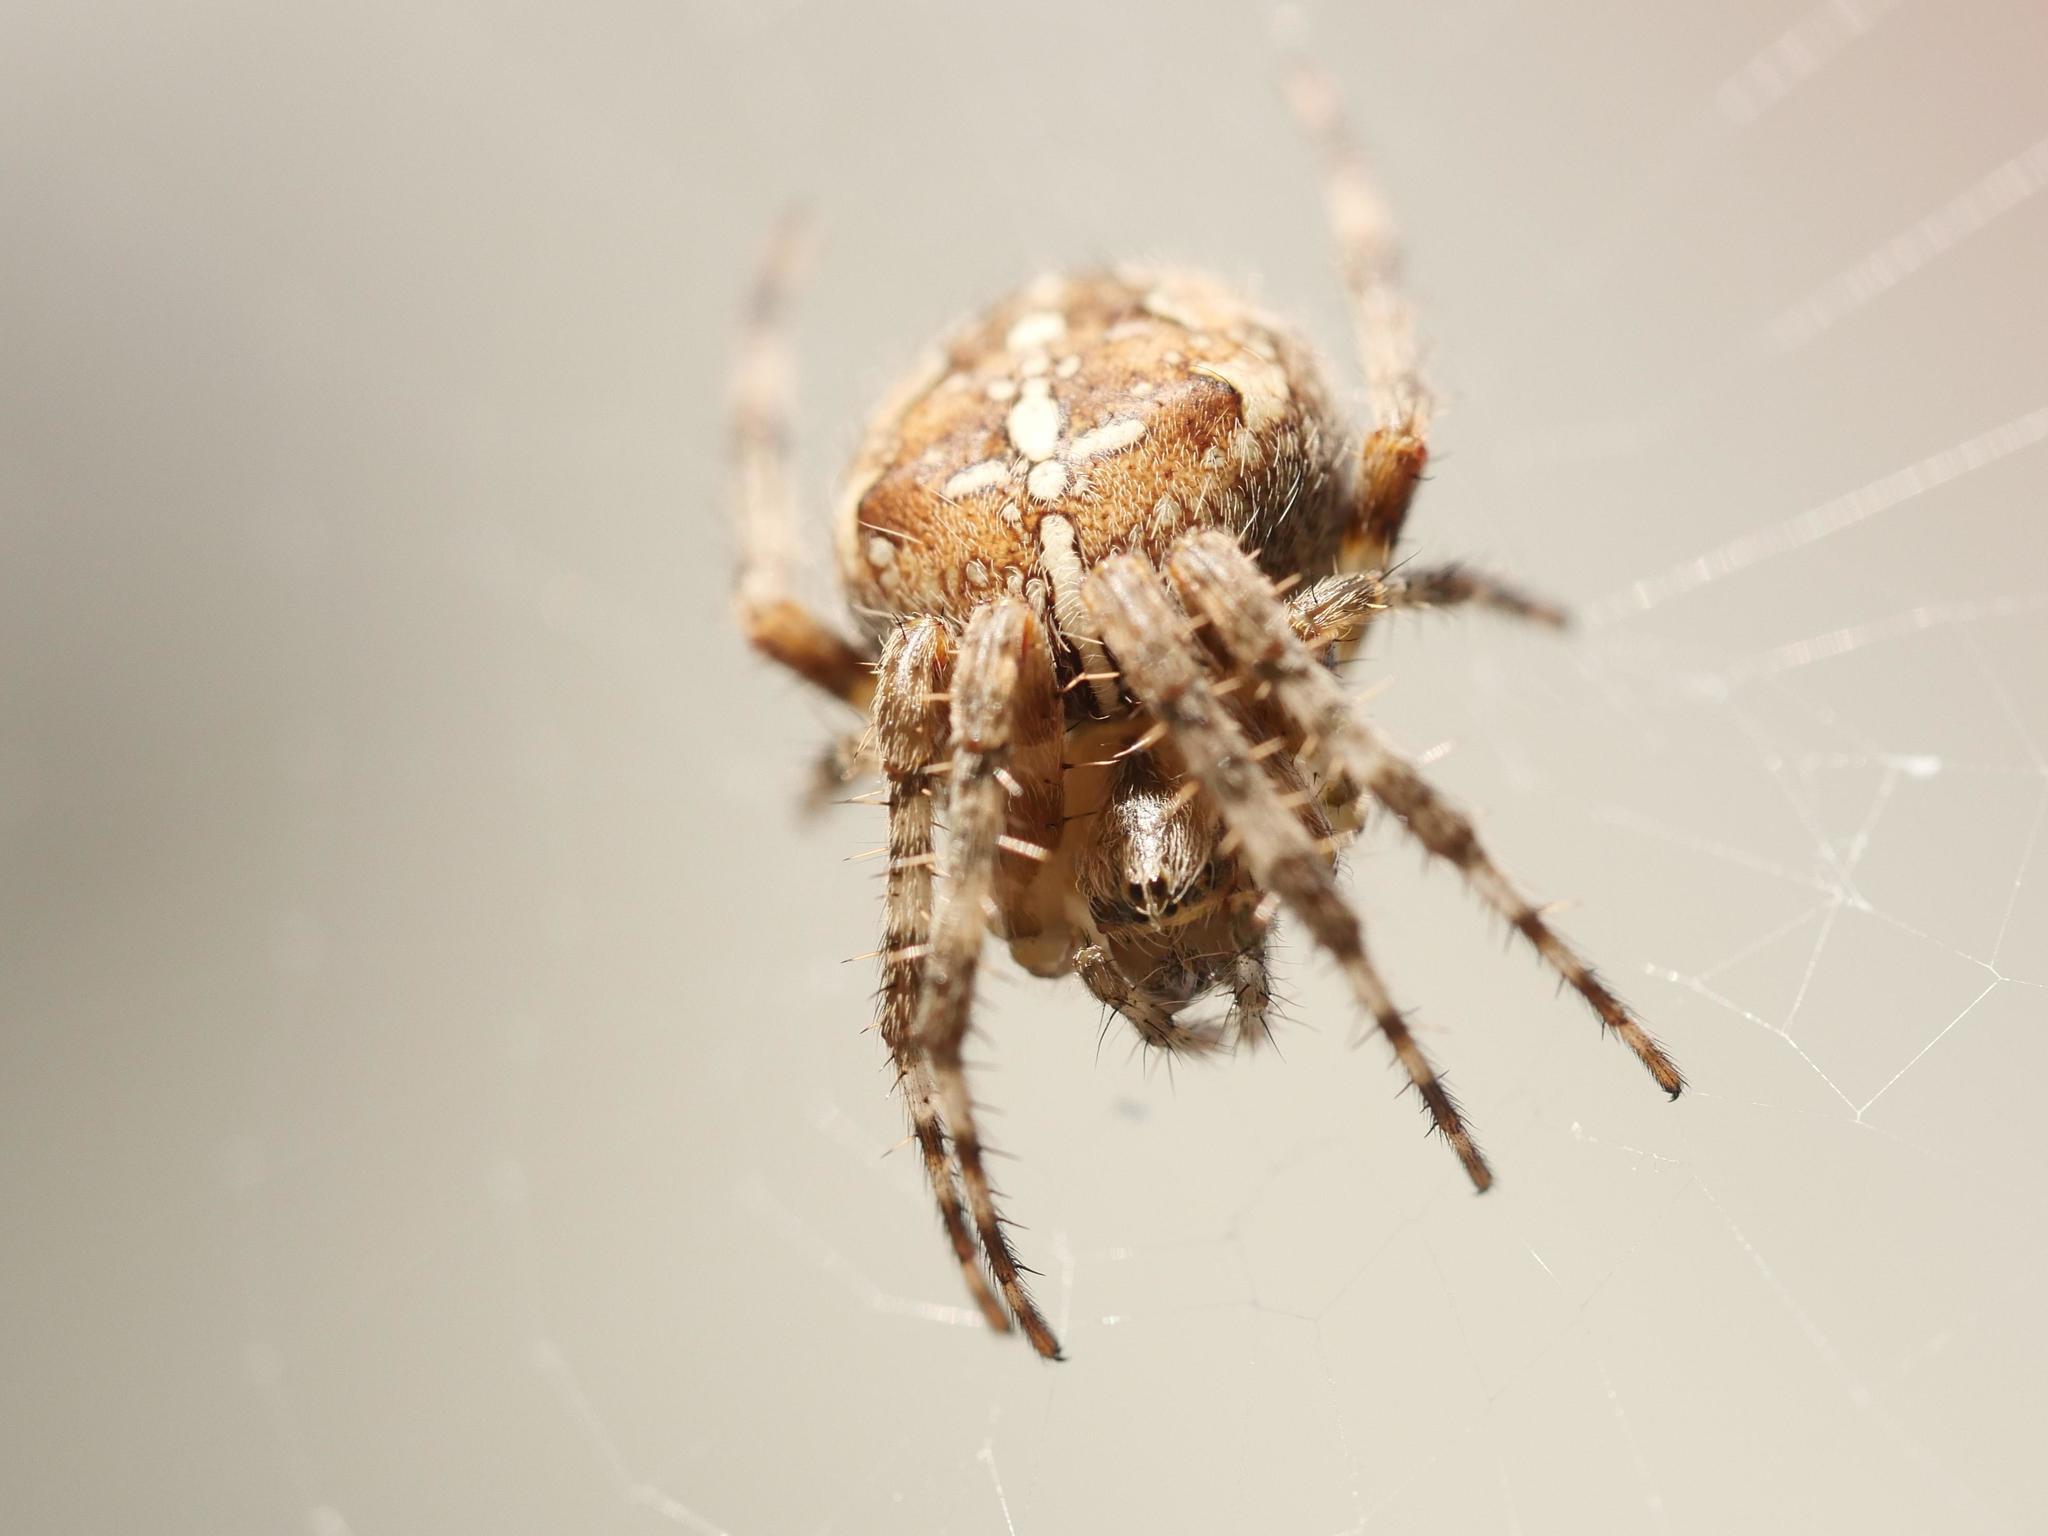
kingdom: Animalia
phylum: Arthropoda
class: Arachnida
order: Araneae
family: Araneidae
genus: Araneus
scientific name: Araneus diadematus
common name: Cross orbweaver
